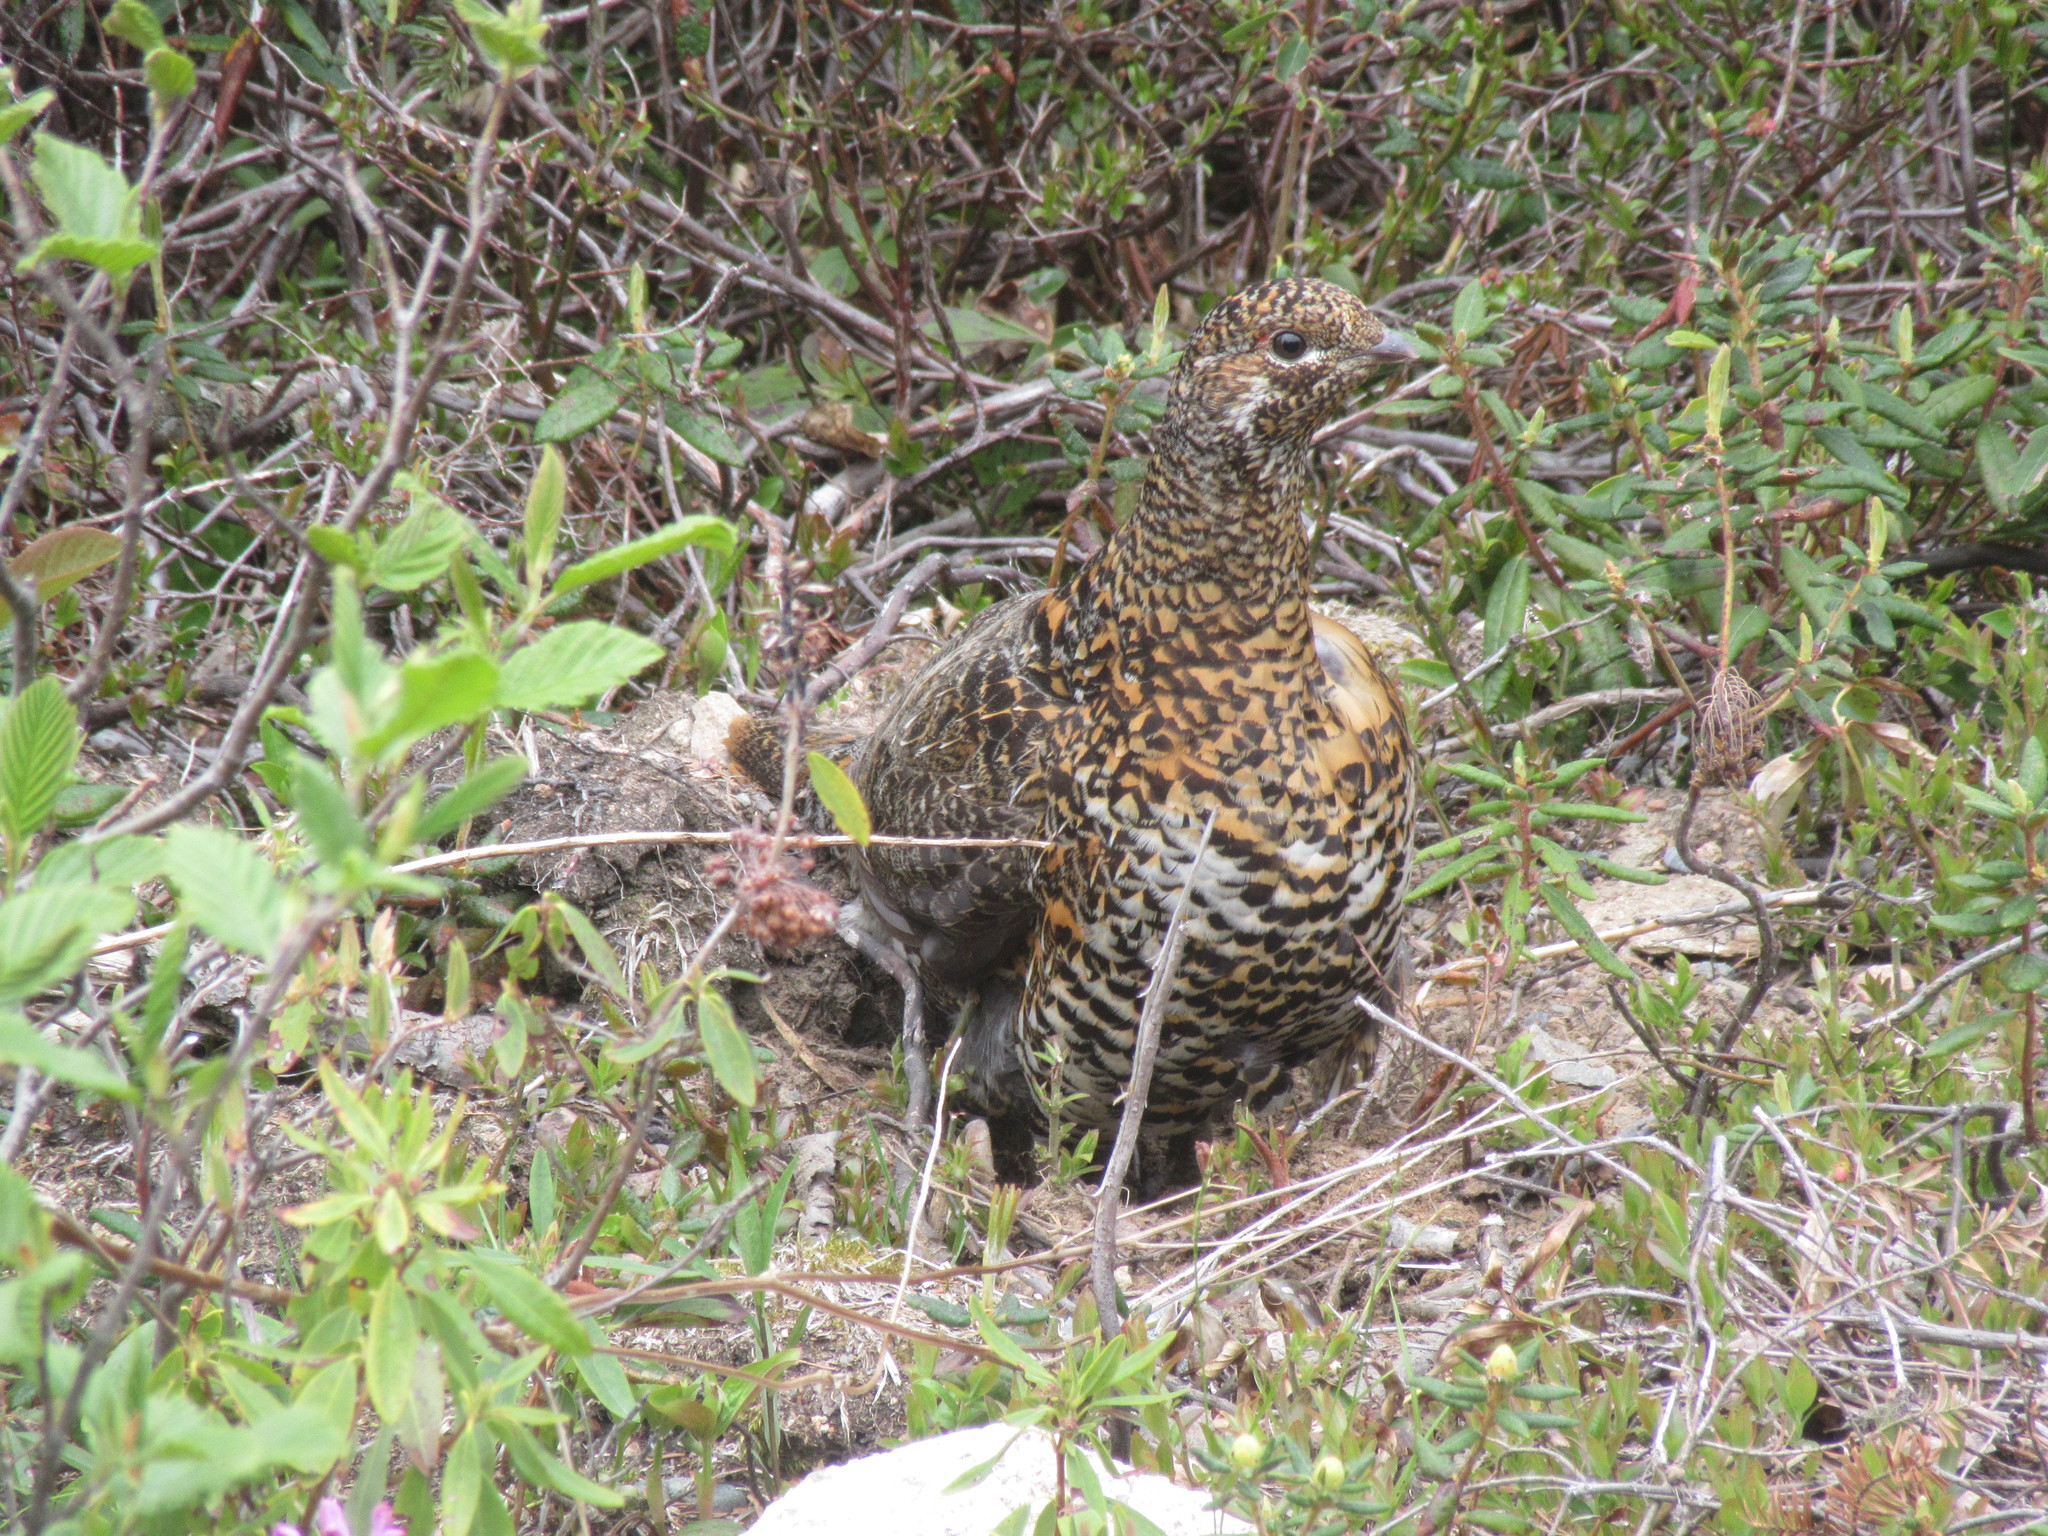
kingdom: Animalia
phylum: Chordata
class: Aves
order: Galliformes
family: Phasianidae
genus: Canachites
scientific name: Canachites canadensis
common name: Spruce grouse
